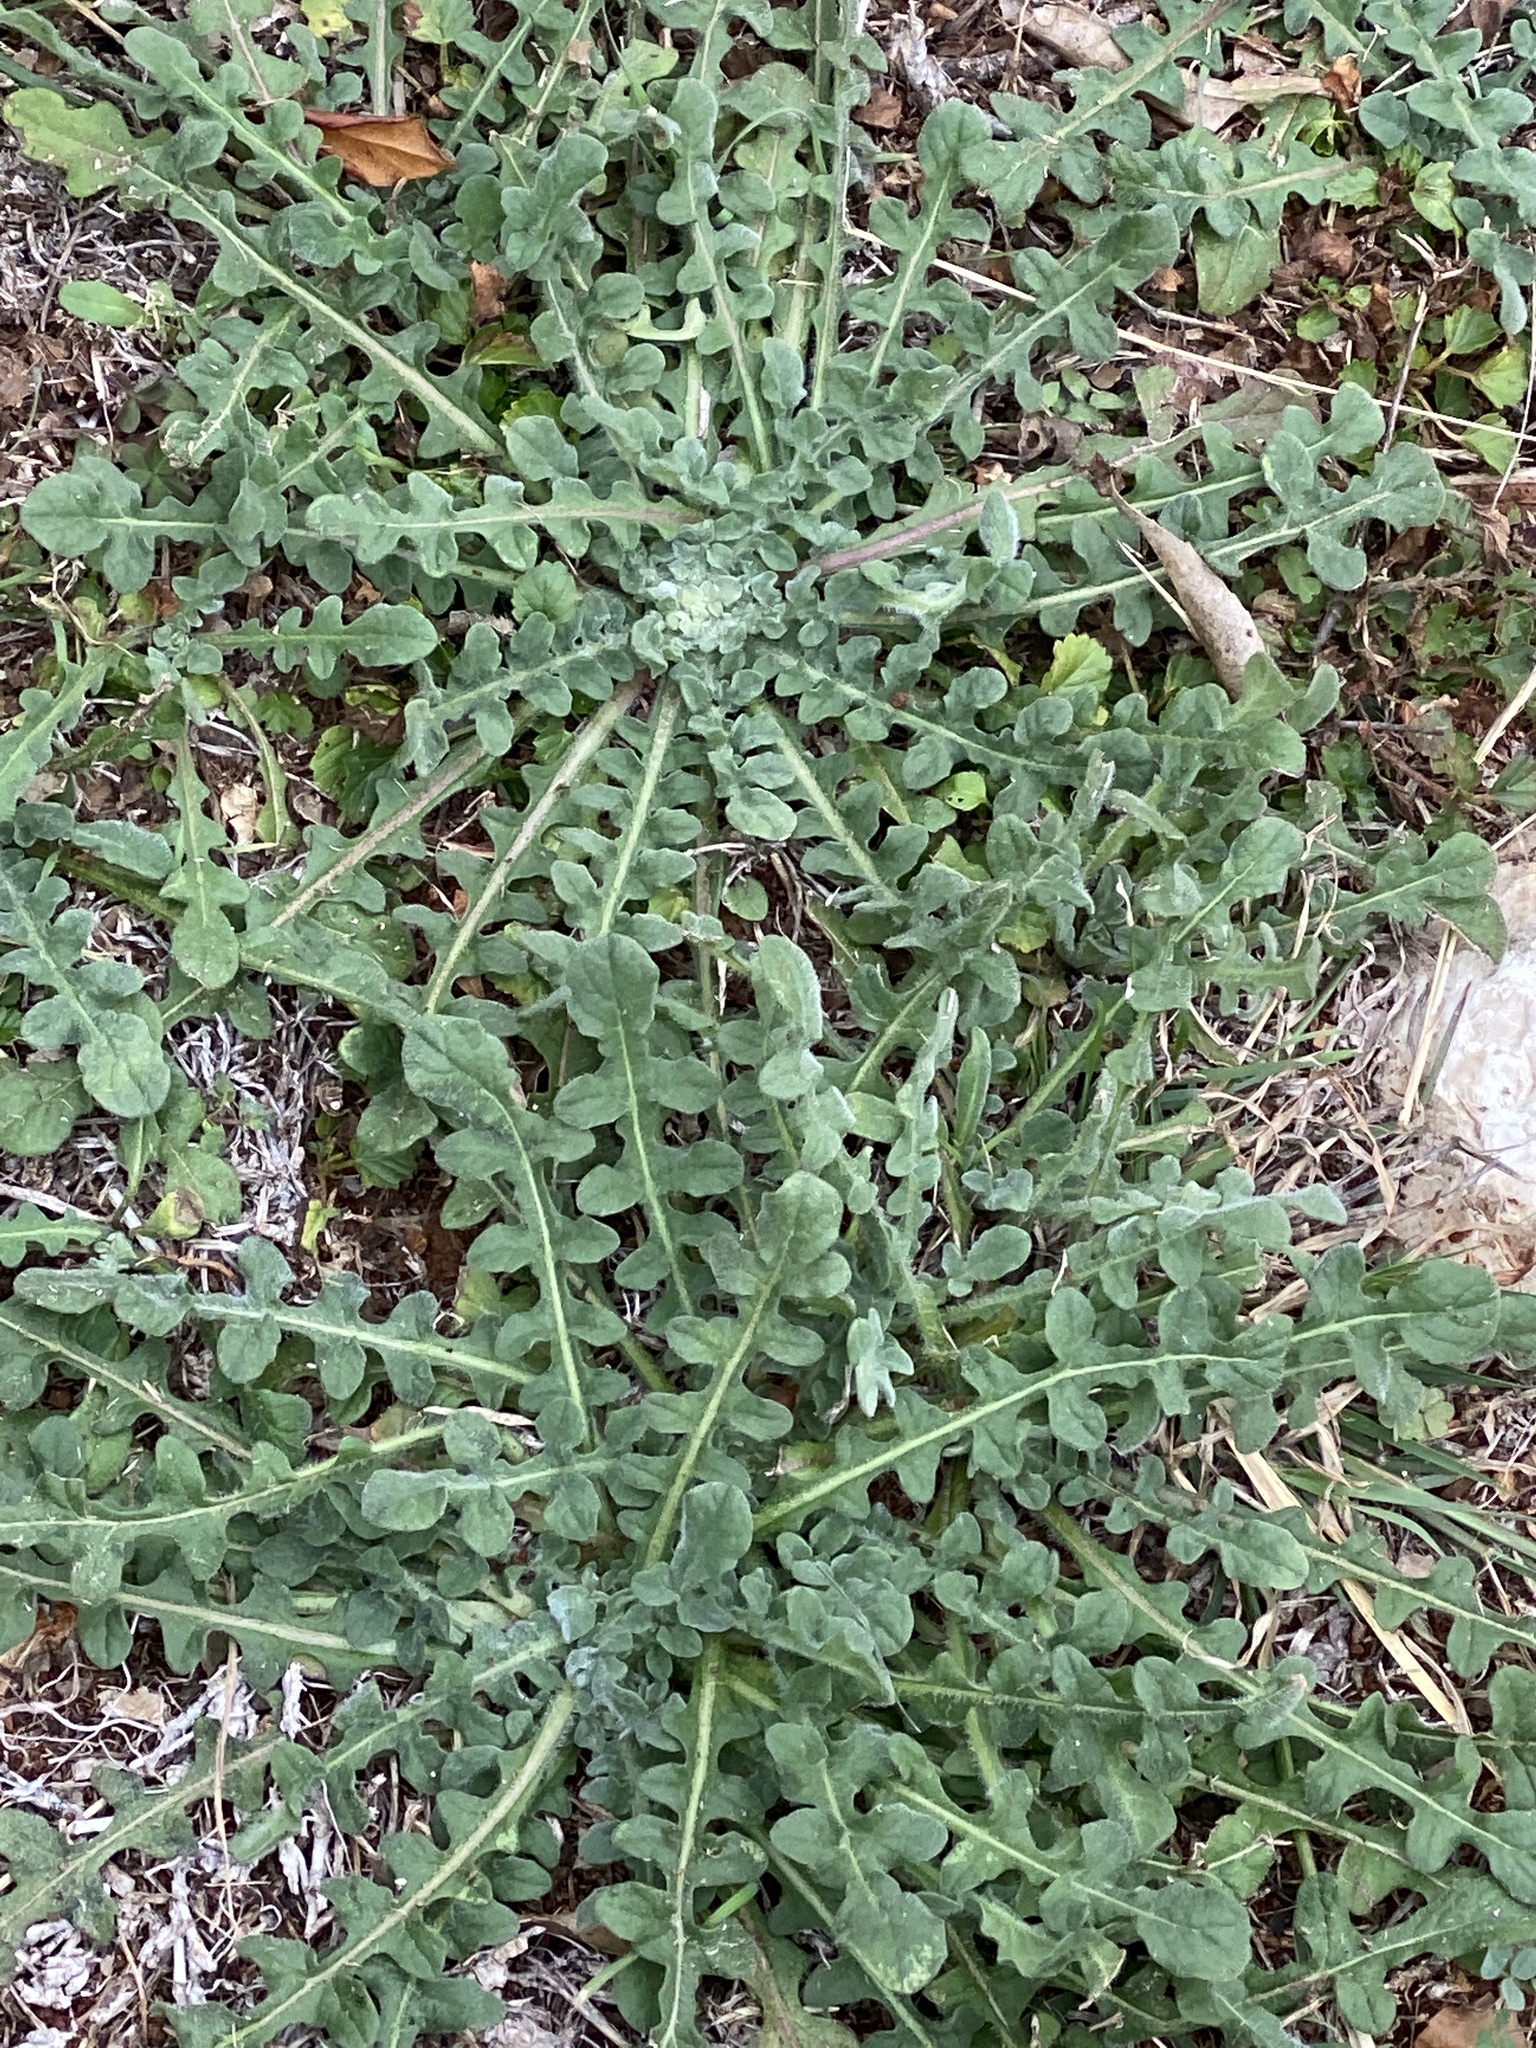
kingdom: Plantae
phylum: Tracheophyta
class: Magnoliopsida
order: Asterales
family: Asteraceae
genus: Centaurea
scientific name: Centaurea melitensis
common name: Maltese star-thistle
